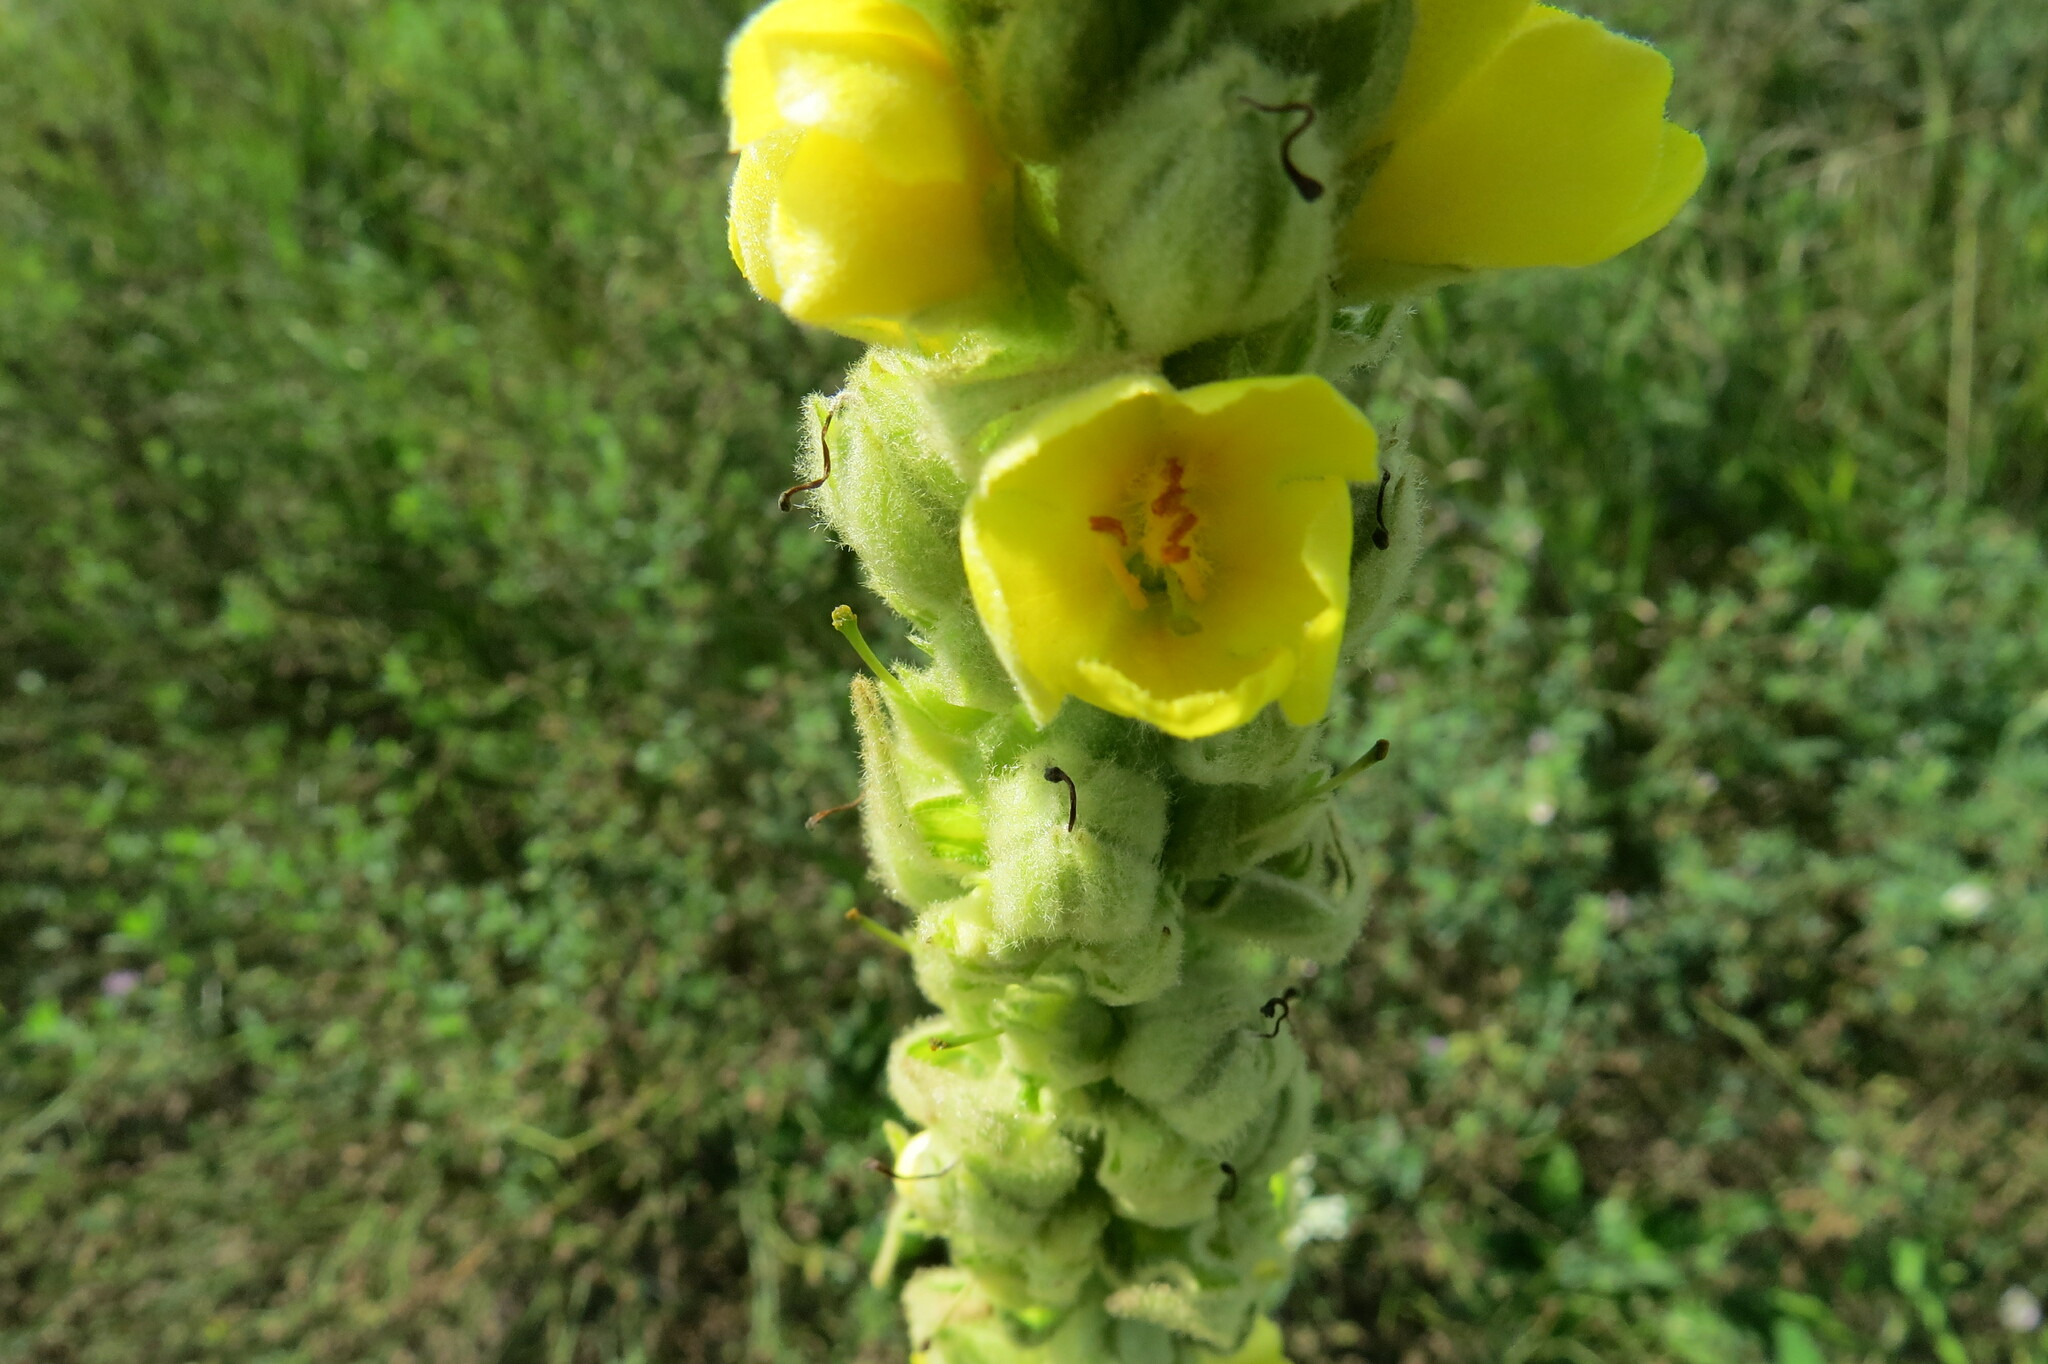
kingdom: Plantae
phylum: Tracheophyta
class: Magnoliopsida
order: Lamiales
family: Scrophulariaceae
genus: Verbascum
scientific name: Verbascum thapsus
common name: Common mullein
